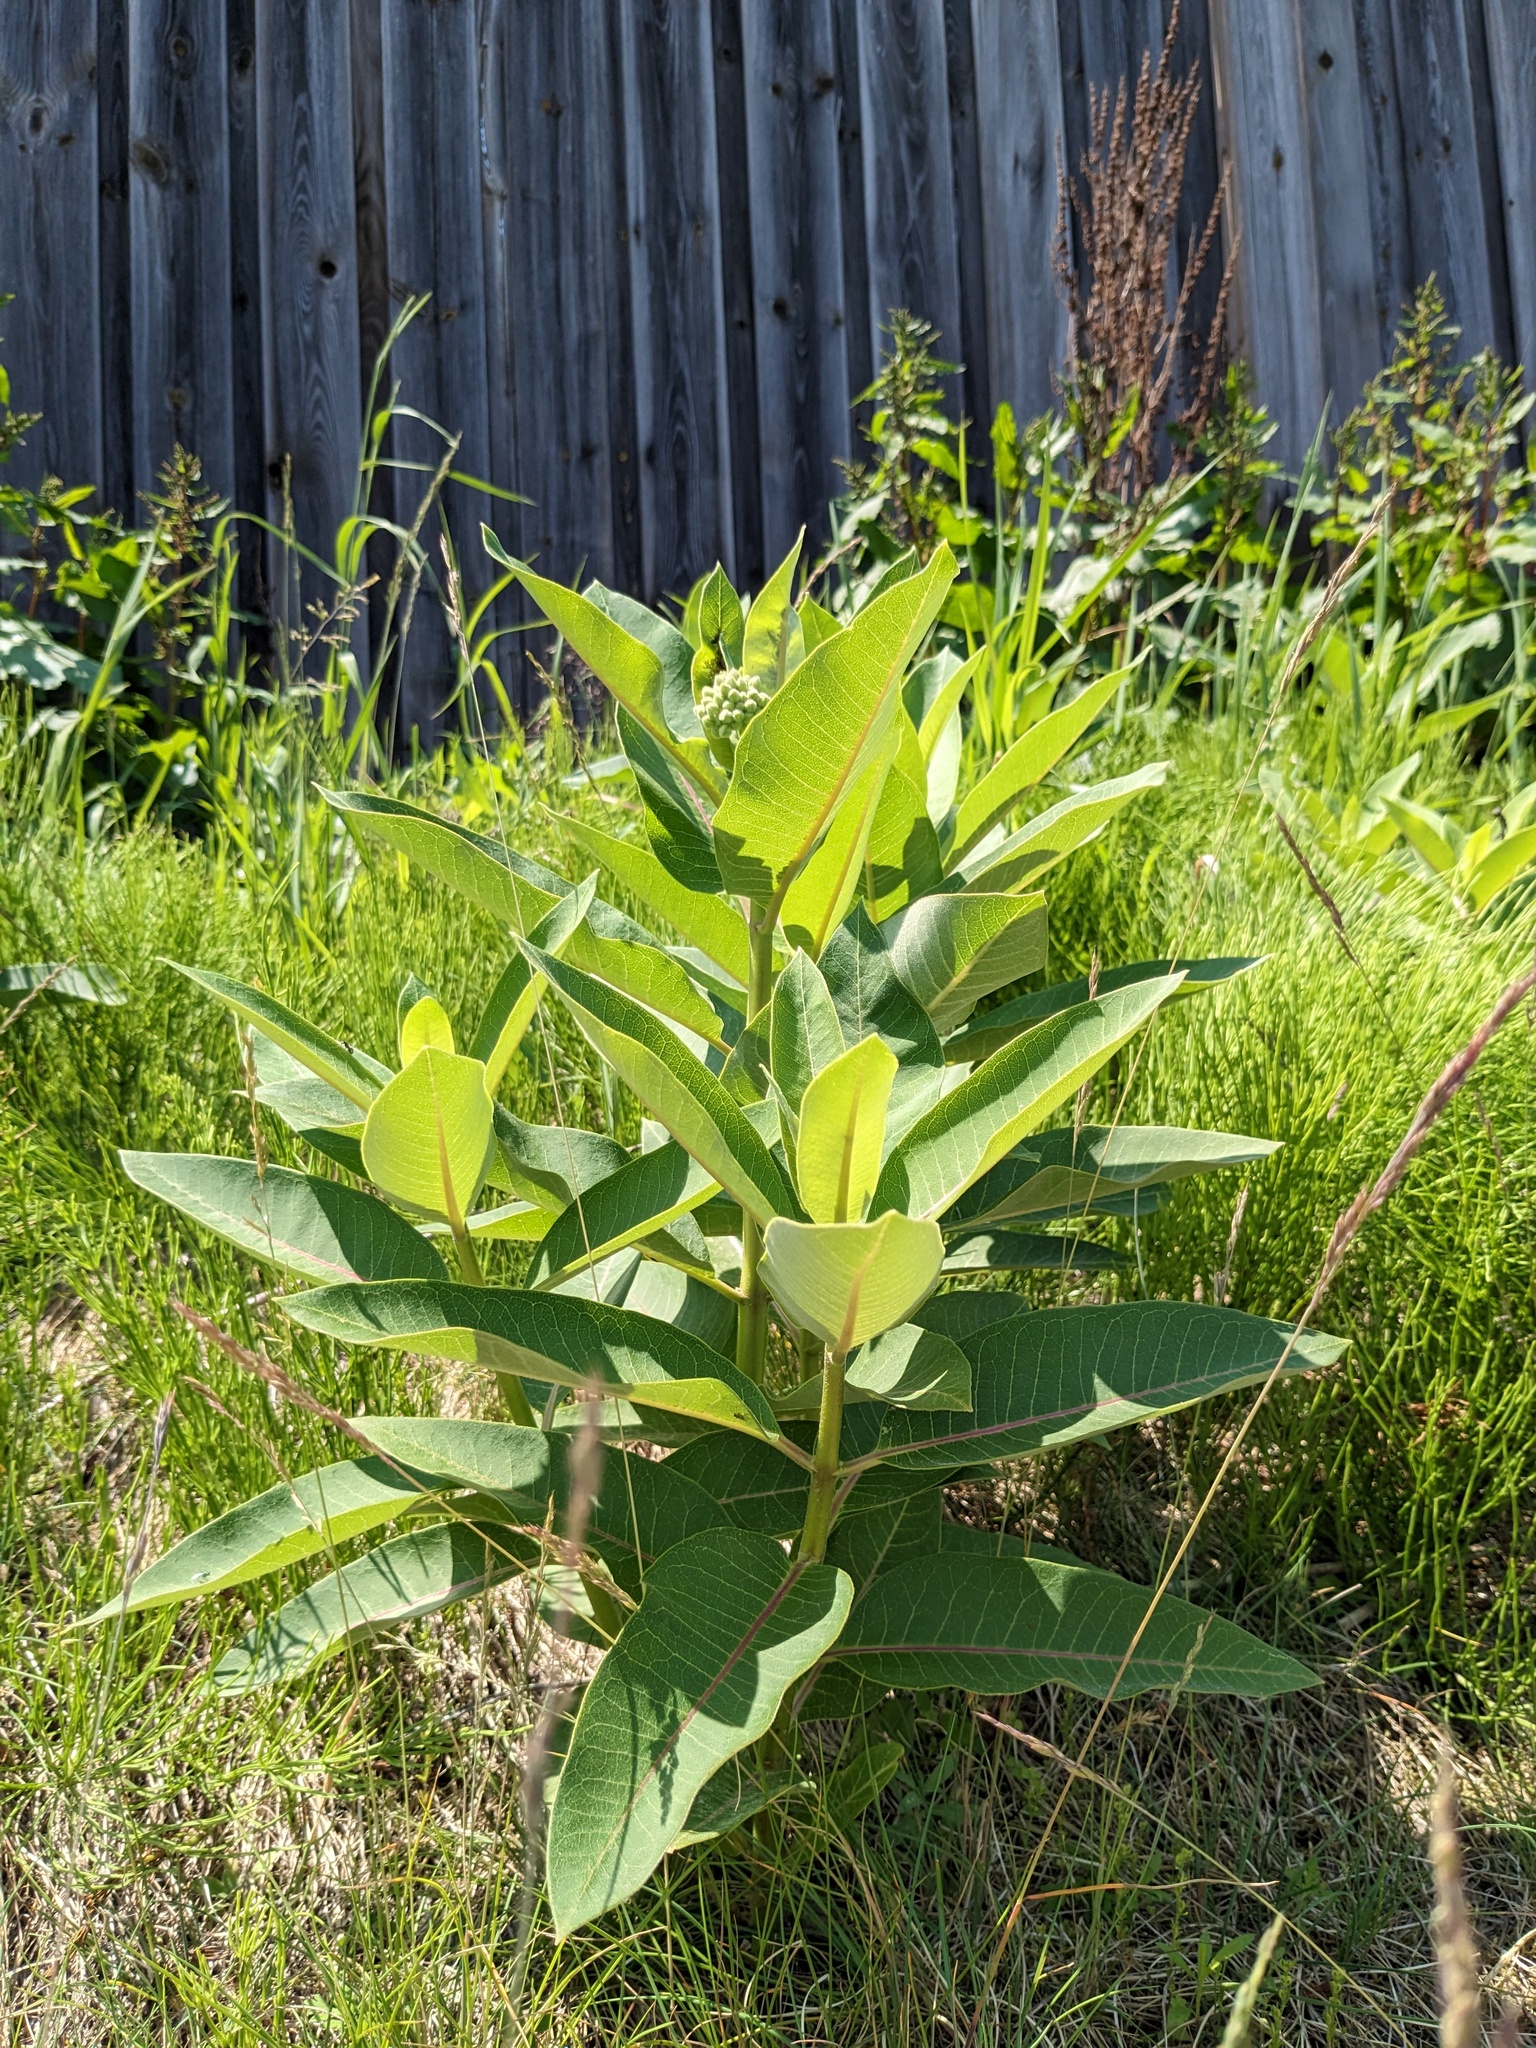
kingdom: Plantae
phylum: Tracheophyta
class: Magnoliopsida
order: Gentianales
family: Apocynaceae
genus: Asclepias
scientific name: Asclepias syriaca
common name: Common milkweed
